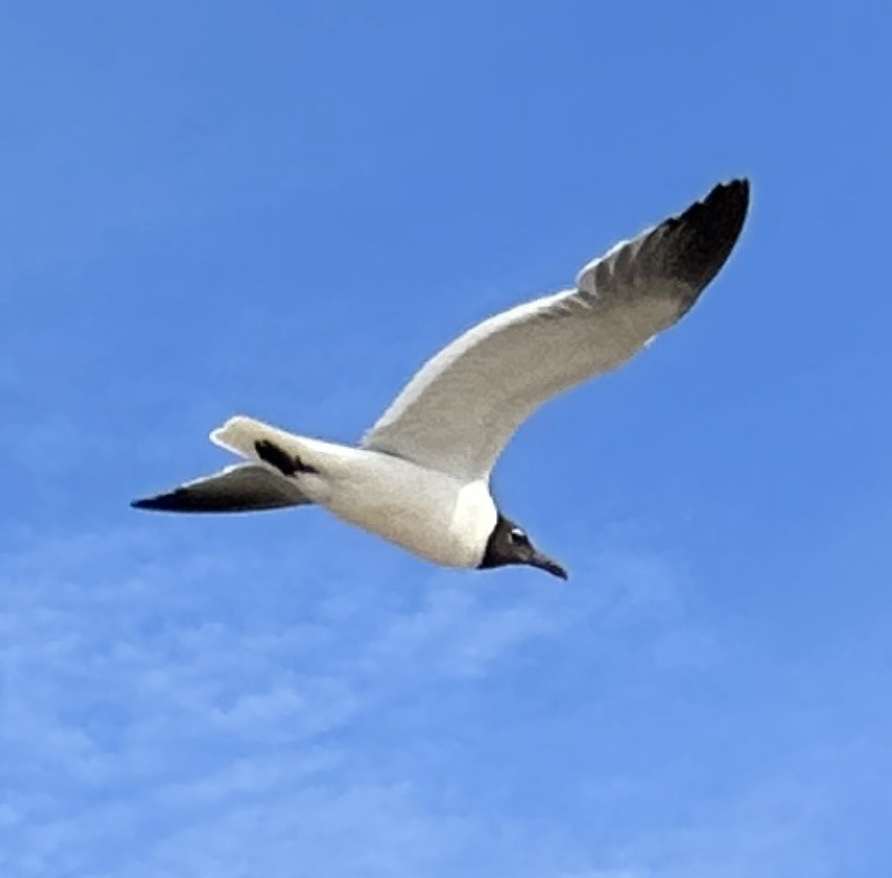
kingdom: Animalia
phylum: Chordata
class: Aves
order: Charadriiformes
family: Laridae
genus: Leucophaeus
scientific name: Leucophaeus atricilla
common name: Laughing gull
